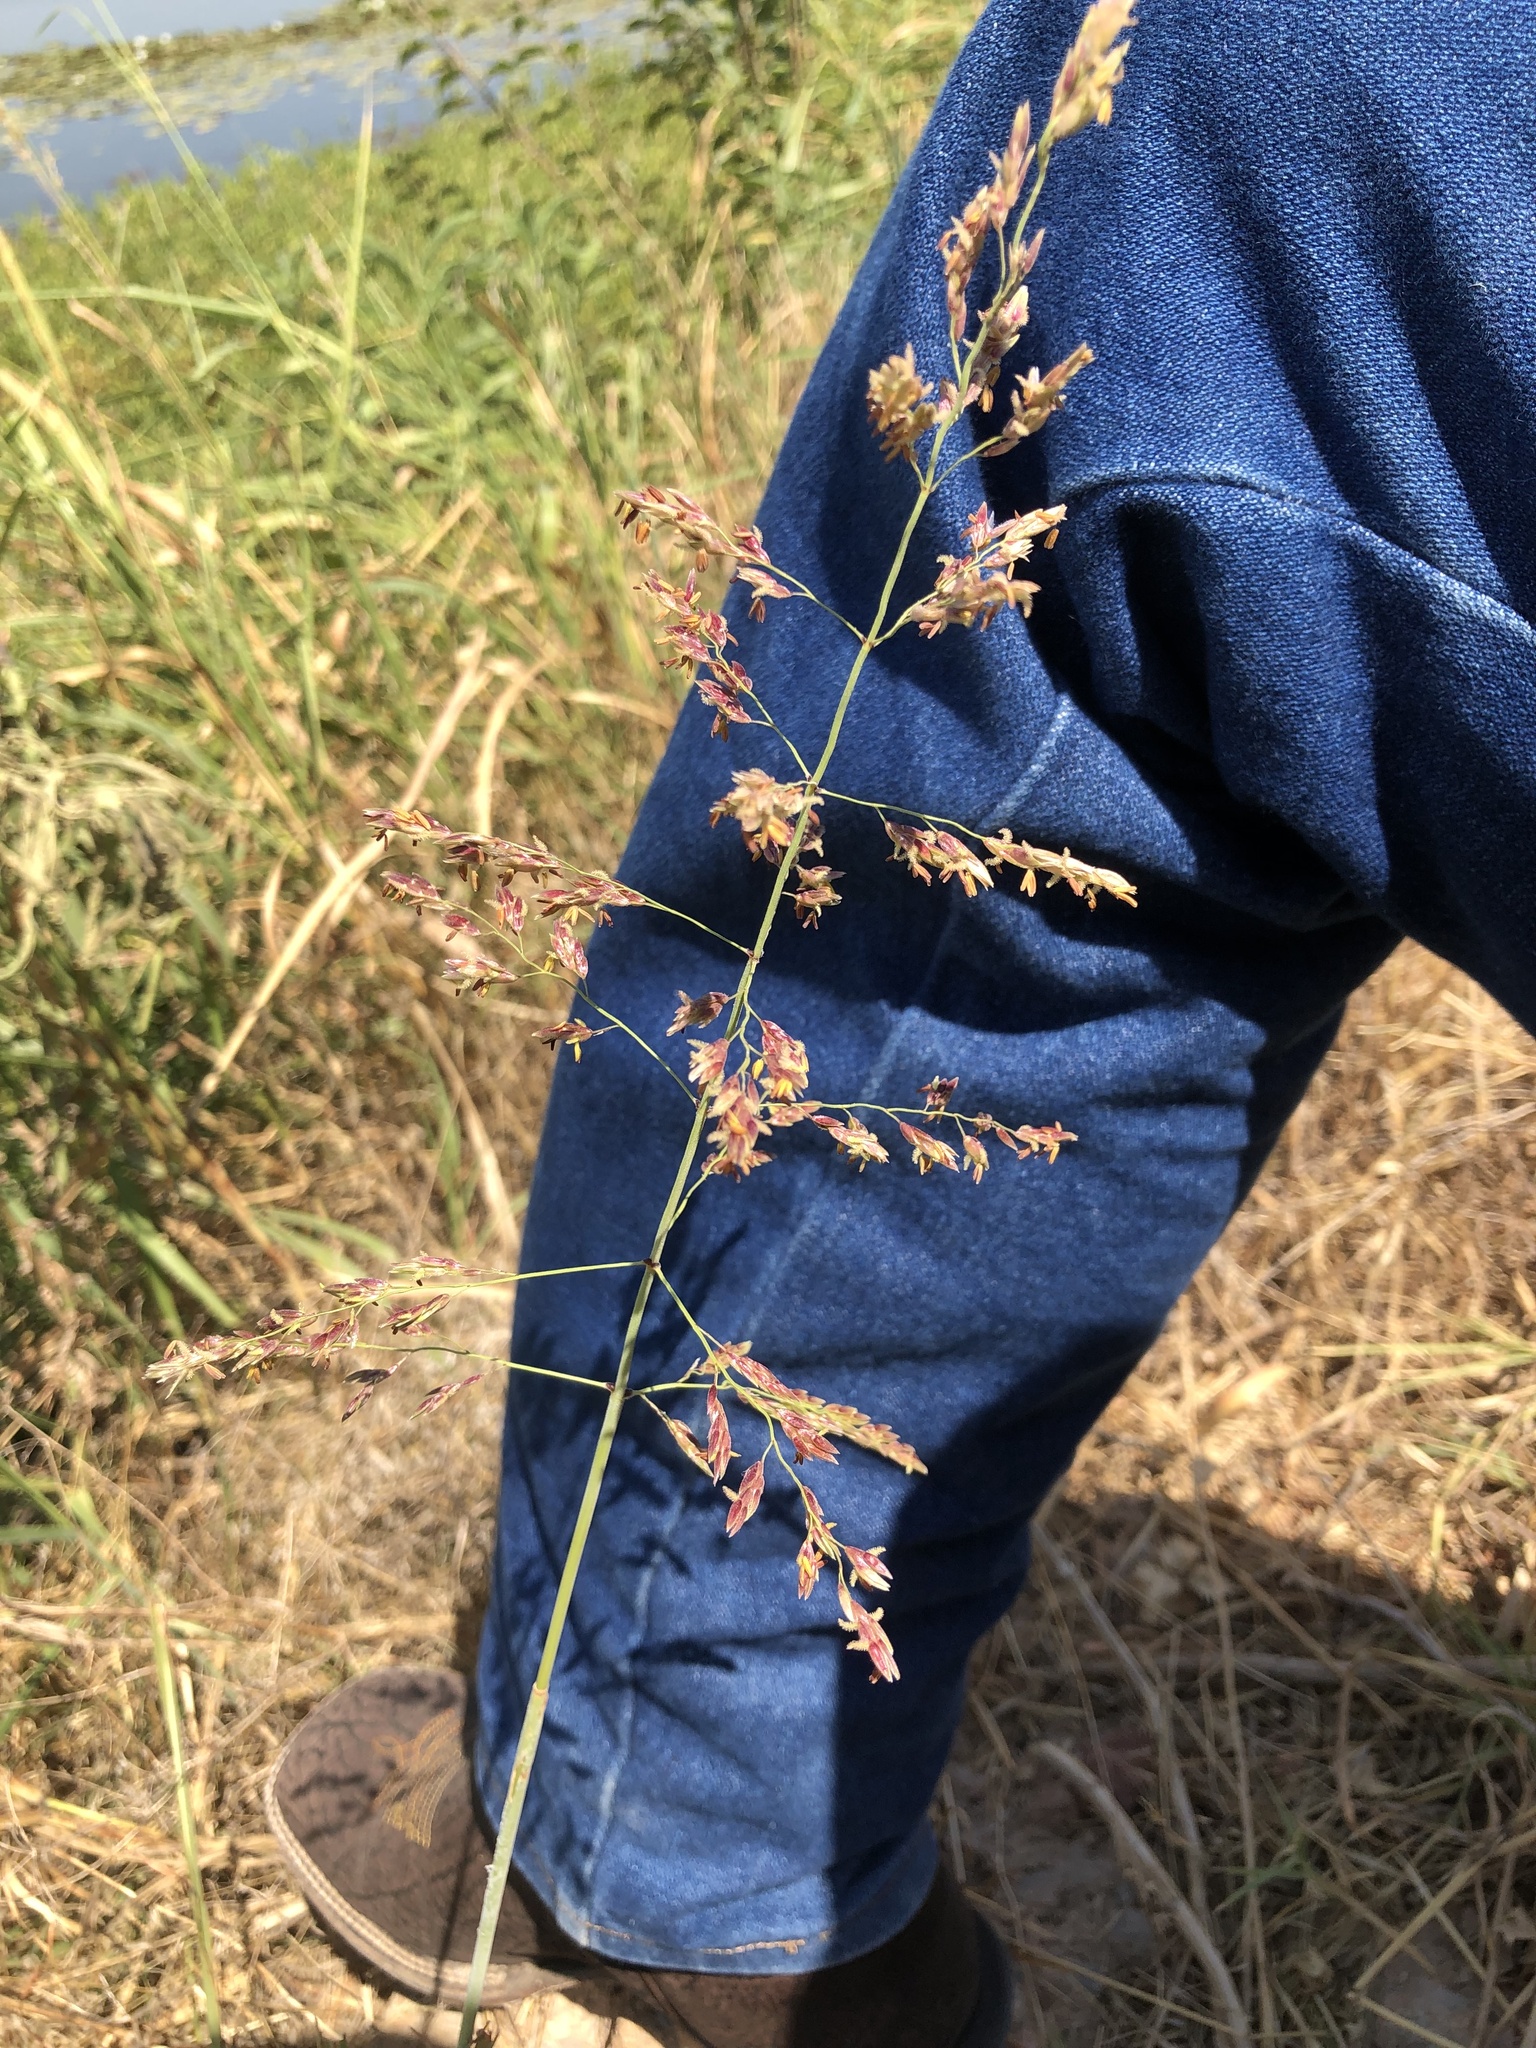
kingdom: Plantae
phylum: Tracheophyta
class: Liliopsida
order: Poales
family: Poaceae
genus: Sorghum
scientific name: Sorghum halepense
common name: Johnson-grass
